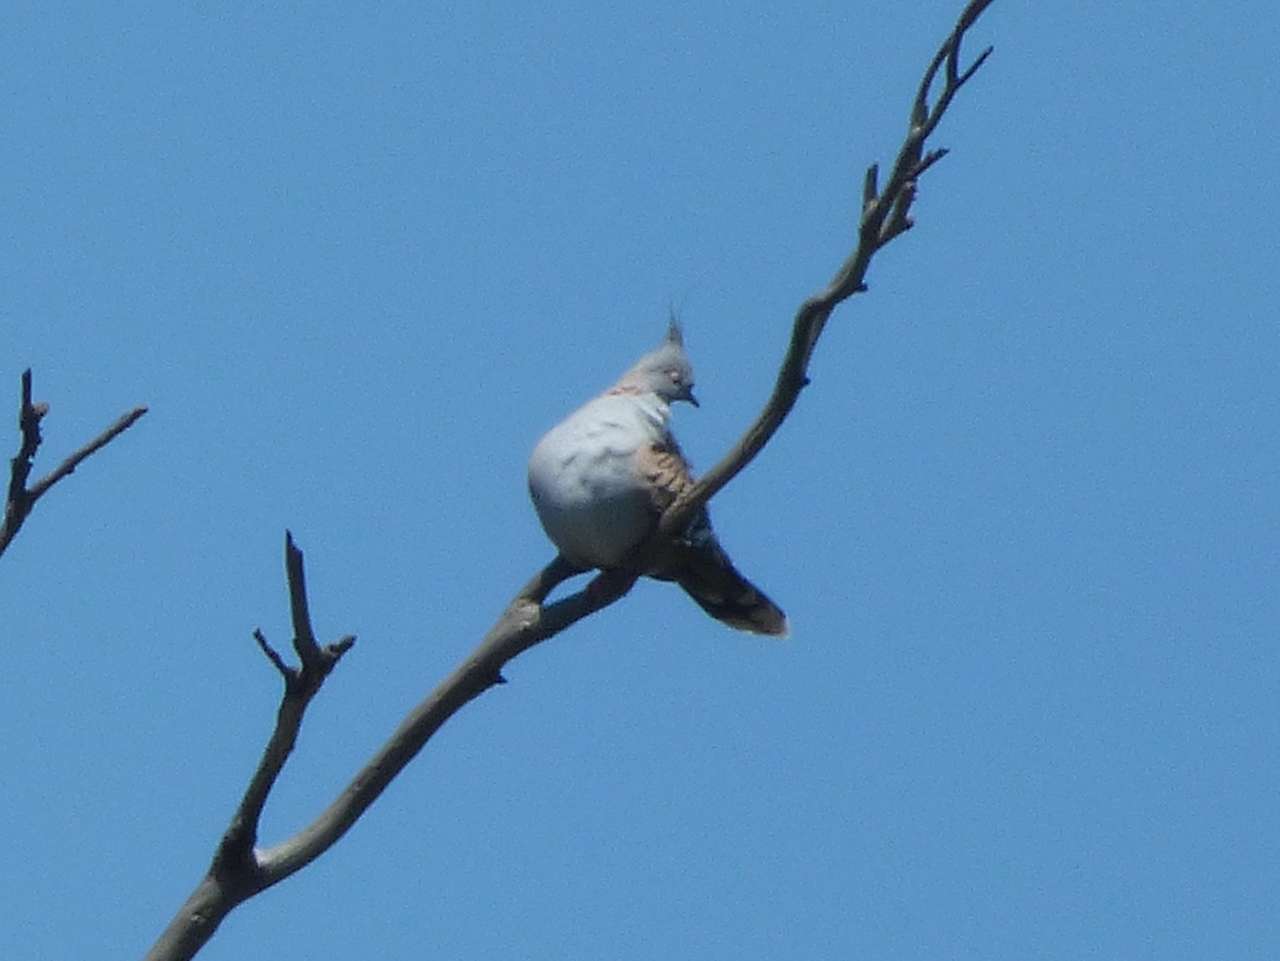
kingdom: Animalia
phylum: Chordata
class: Aves
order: Columbiformes
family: Columbidae
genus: Ocyphaps
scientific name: Ocyphaps lophotes
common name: Crested pigeon
